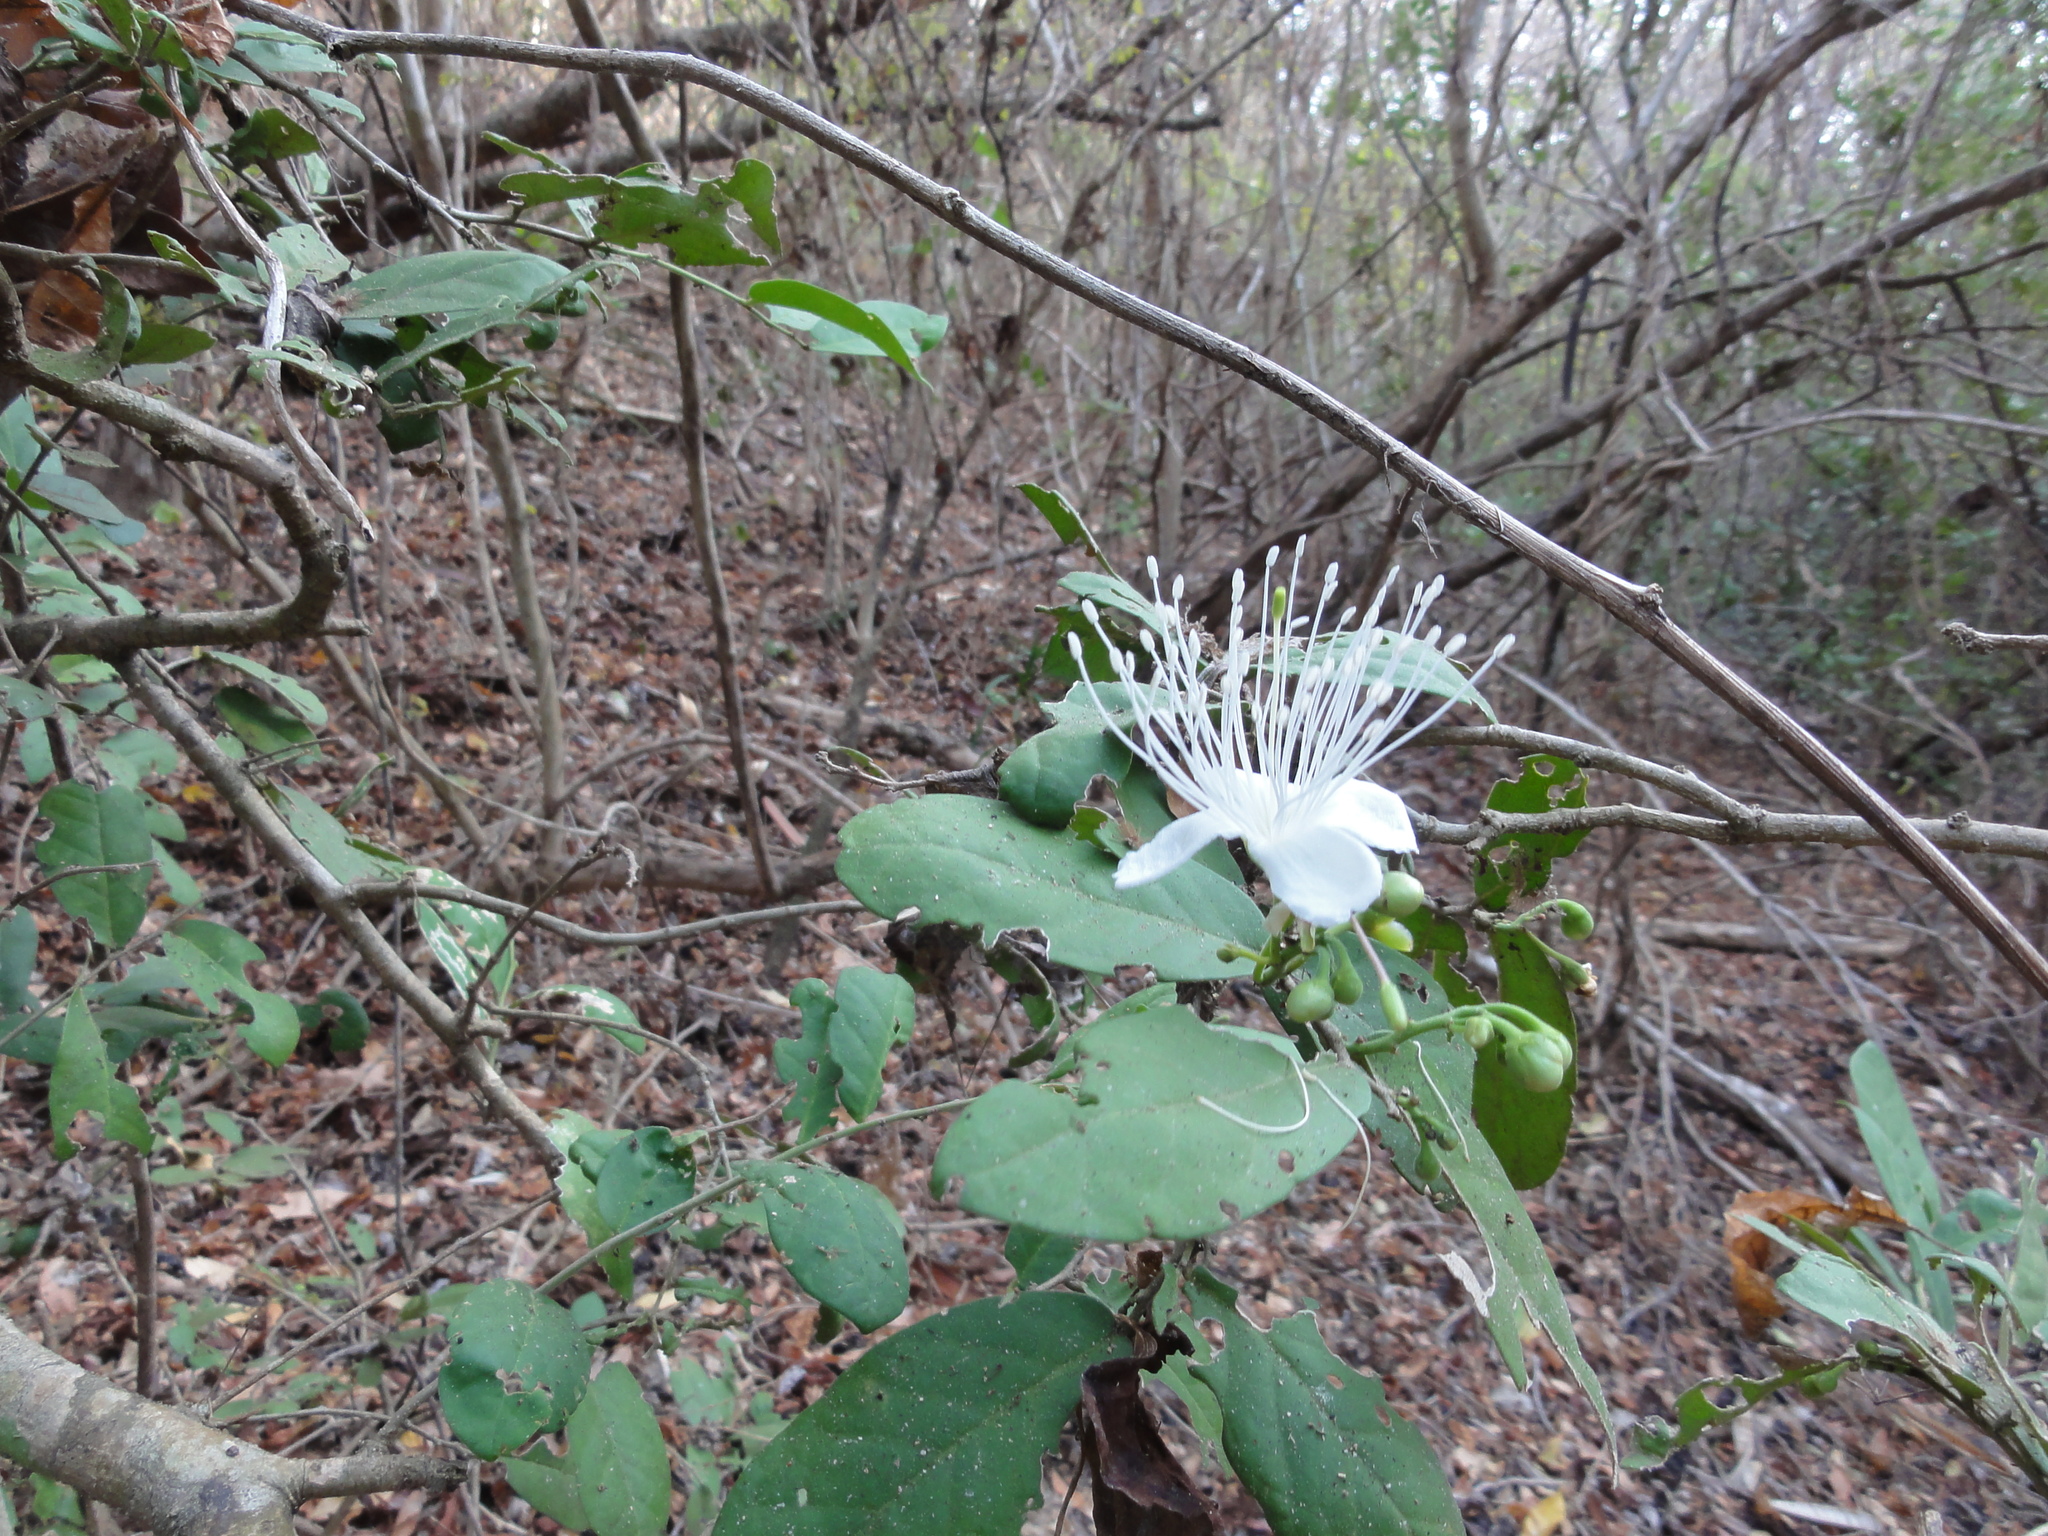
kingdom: Plantae
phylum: Tracheophyta
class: Magnoliopsida
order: Brassicales
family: Capparaceae
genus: Cynophalla
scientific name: Cynophalla flexuosa
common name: Capertree
